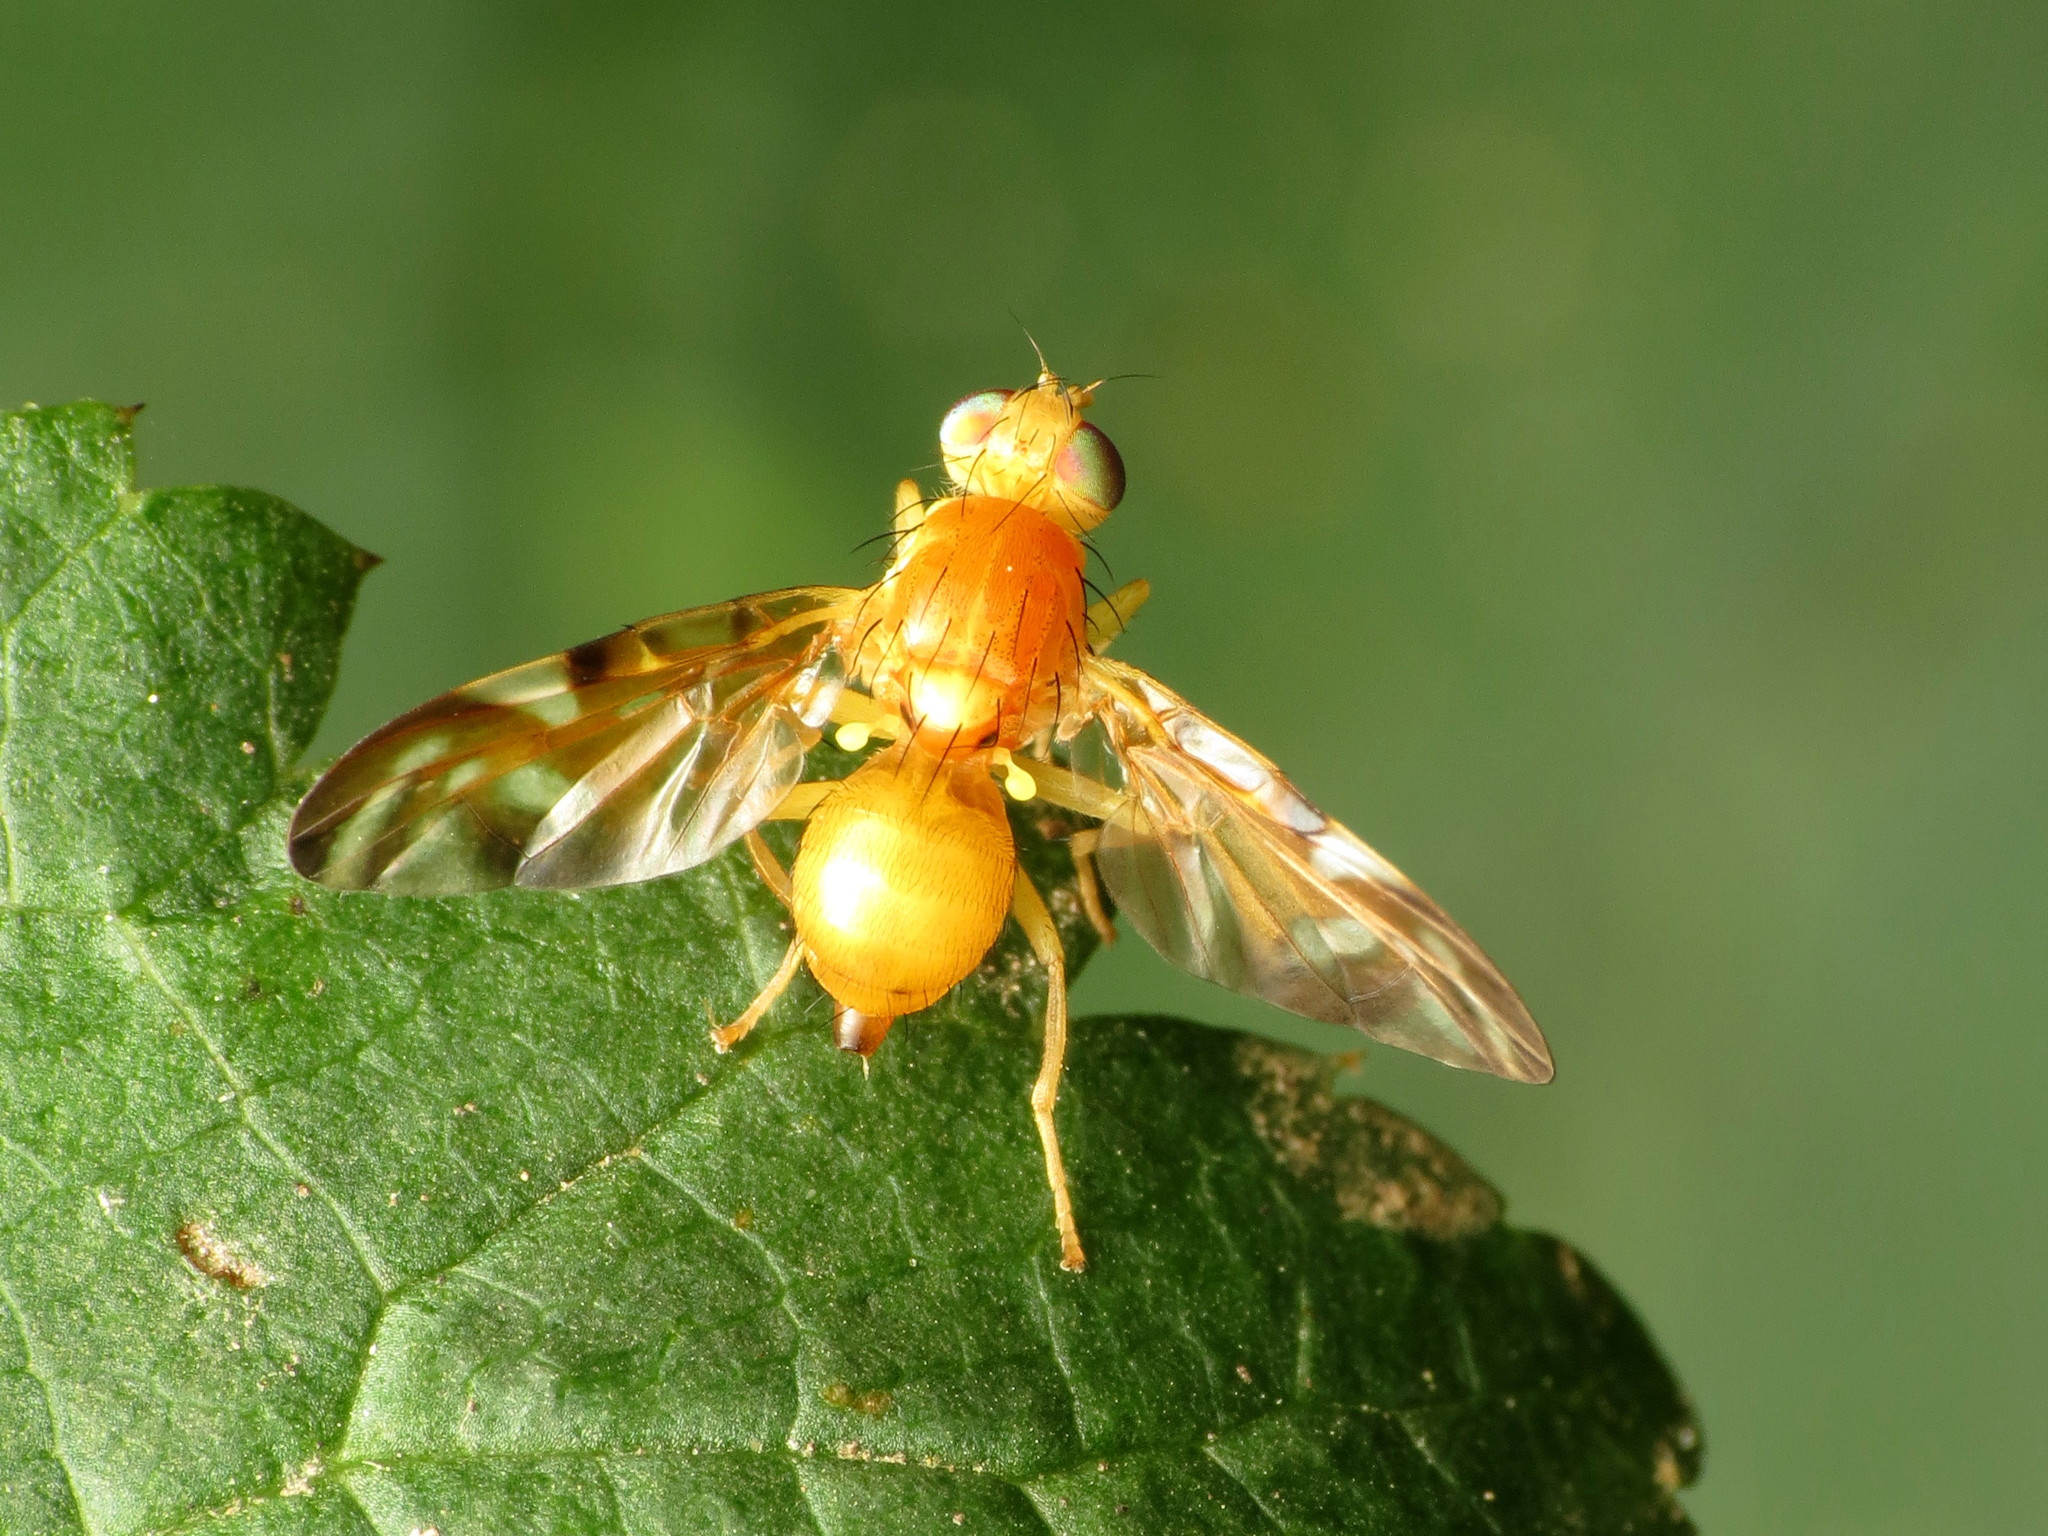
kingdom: Animalia
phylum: Arthropoda
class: Insecta
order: Diptera
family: Tephritidae
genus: Euleia
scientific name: Euleia fratria
